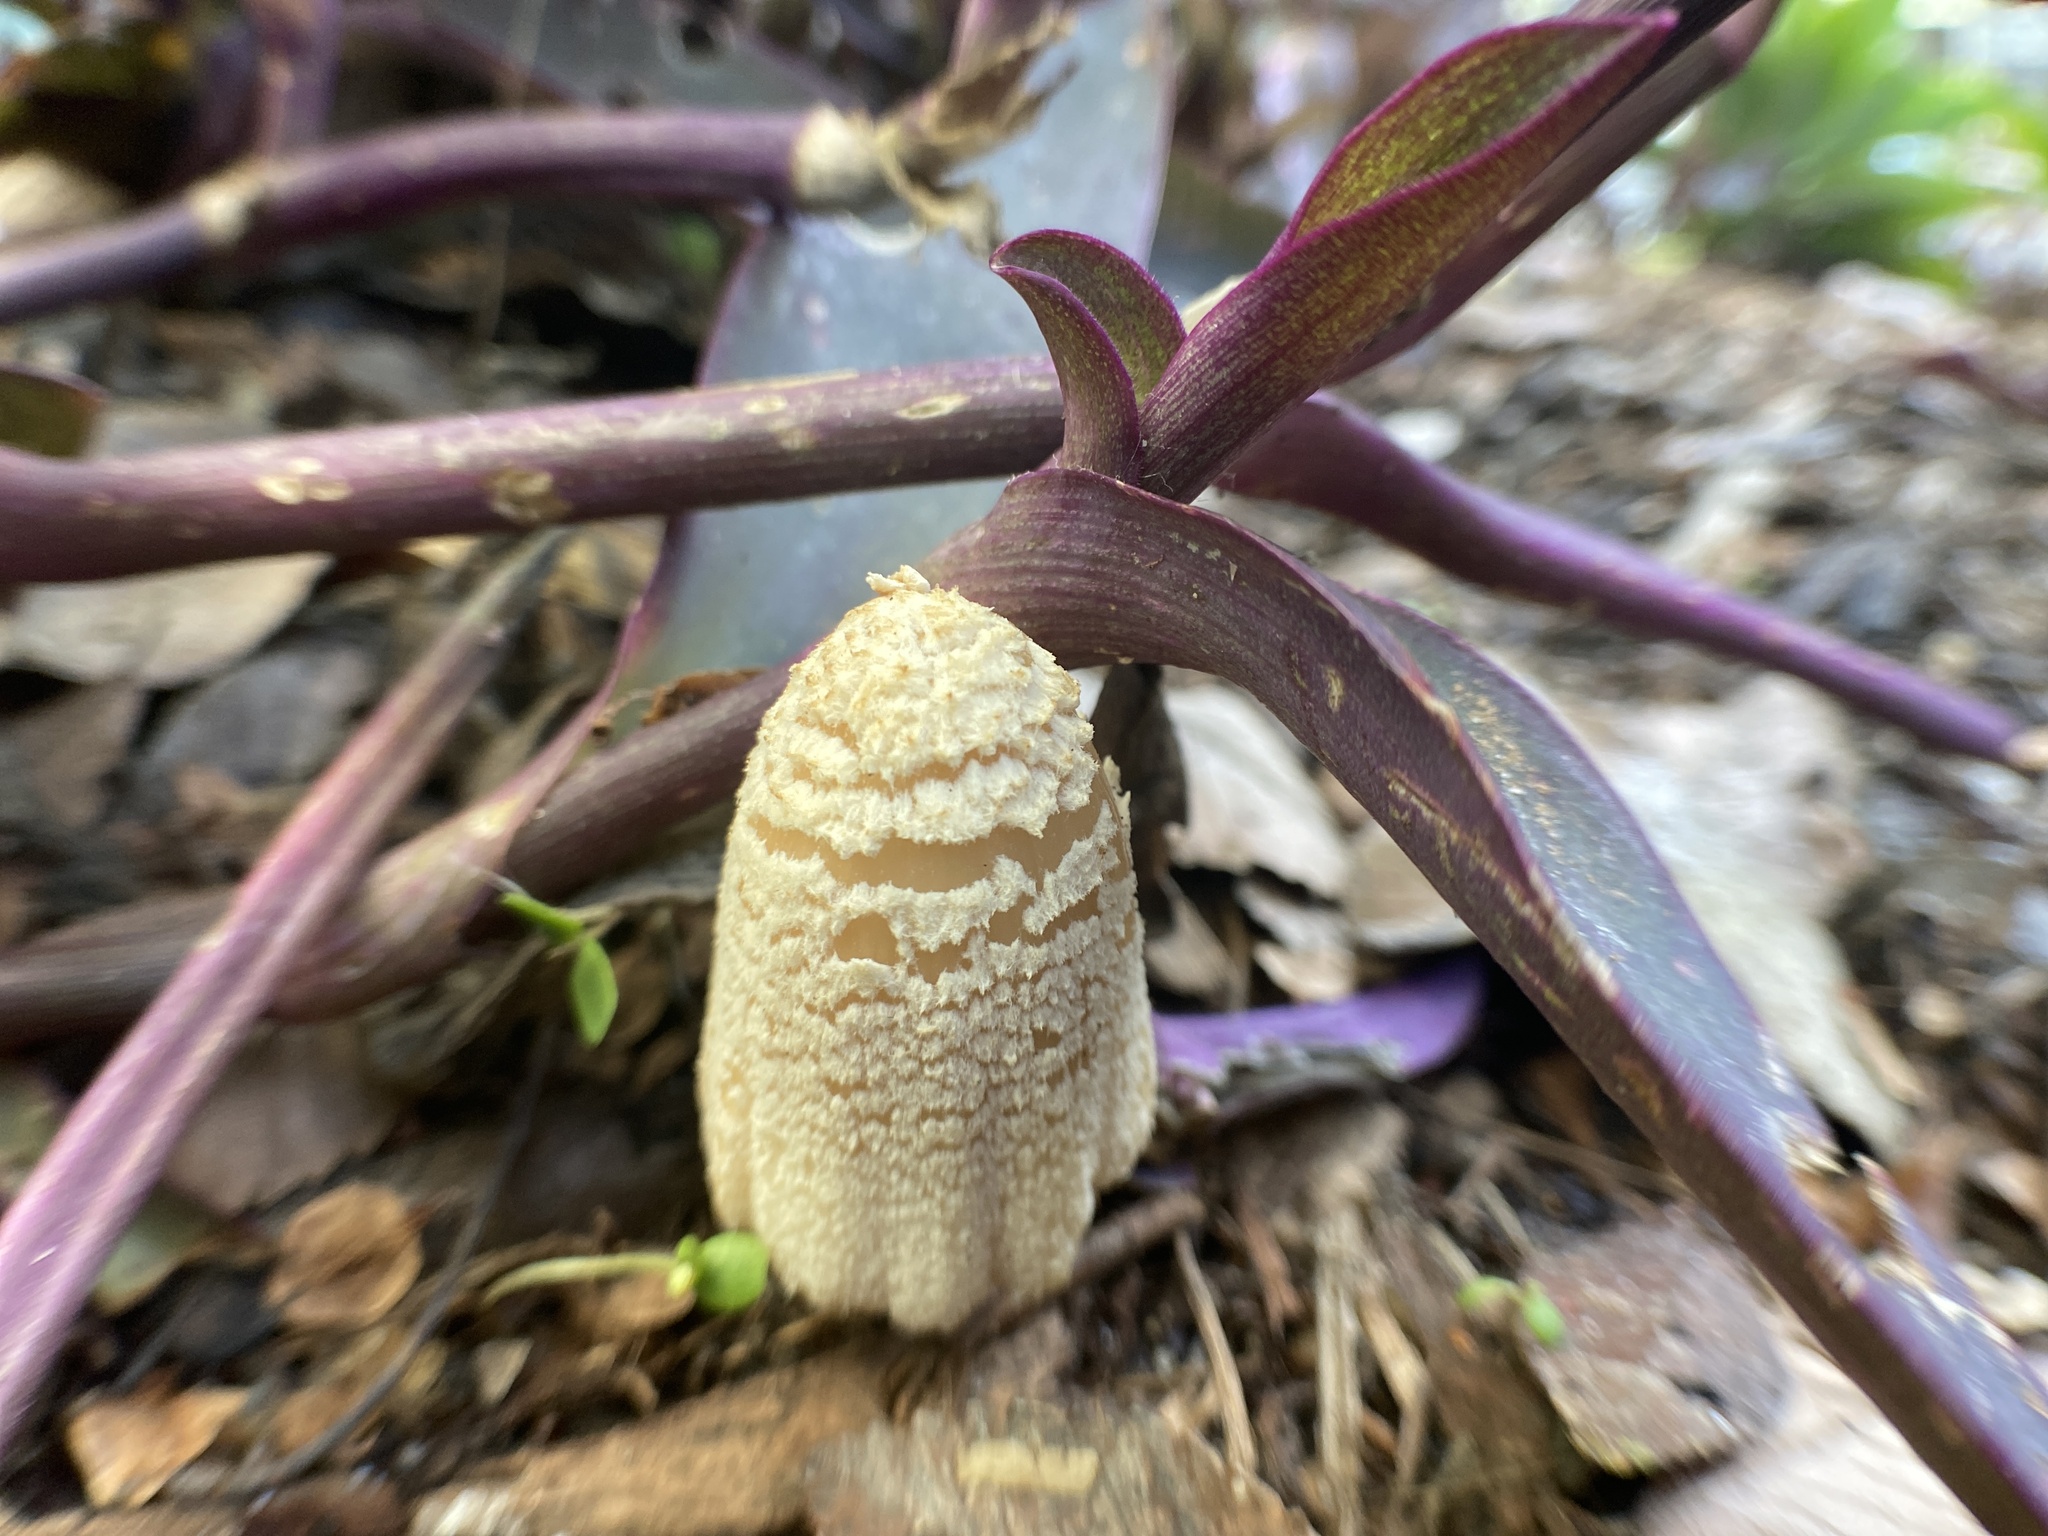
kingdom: Fungi
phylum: Basidiomycota
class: Agaricomycetes
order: Agaricales
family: Psathyrellaceae
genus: Coprinellus
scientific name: Coprinellus flocculosus
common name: Flocculose inkcap
